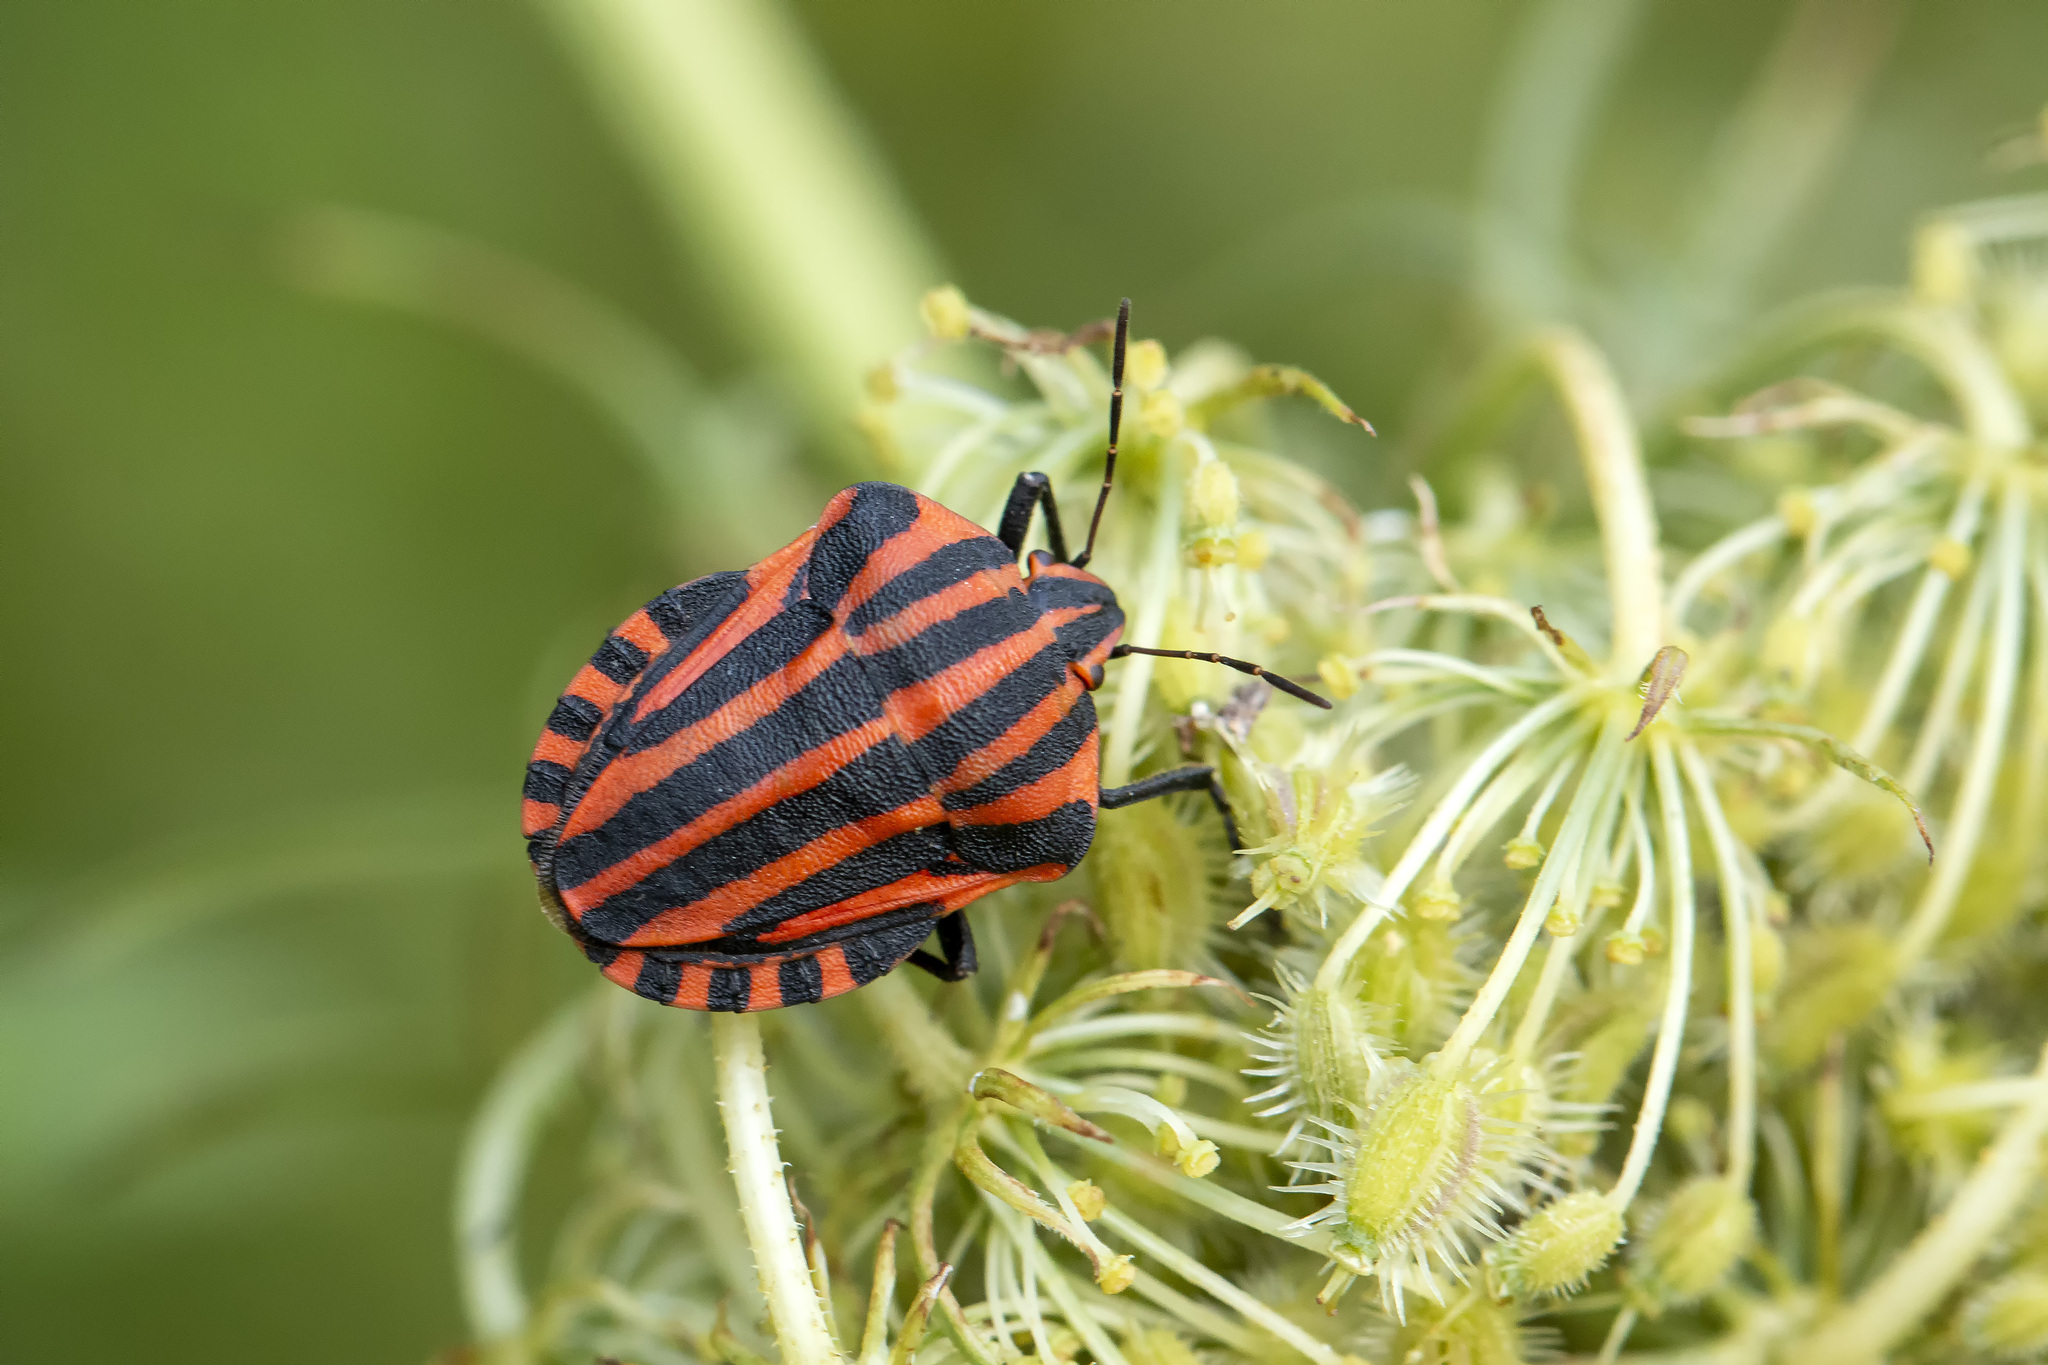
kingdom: Animalia
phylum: Arthropoda
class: Insecta
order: Hemiptera
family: Pentatomidae
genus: Graphosoma
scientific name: Graphosoma italicum
